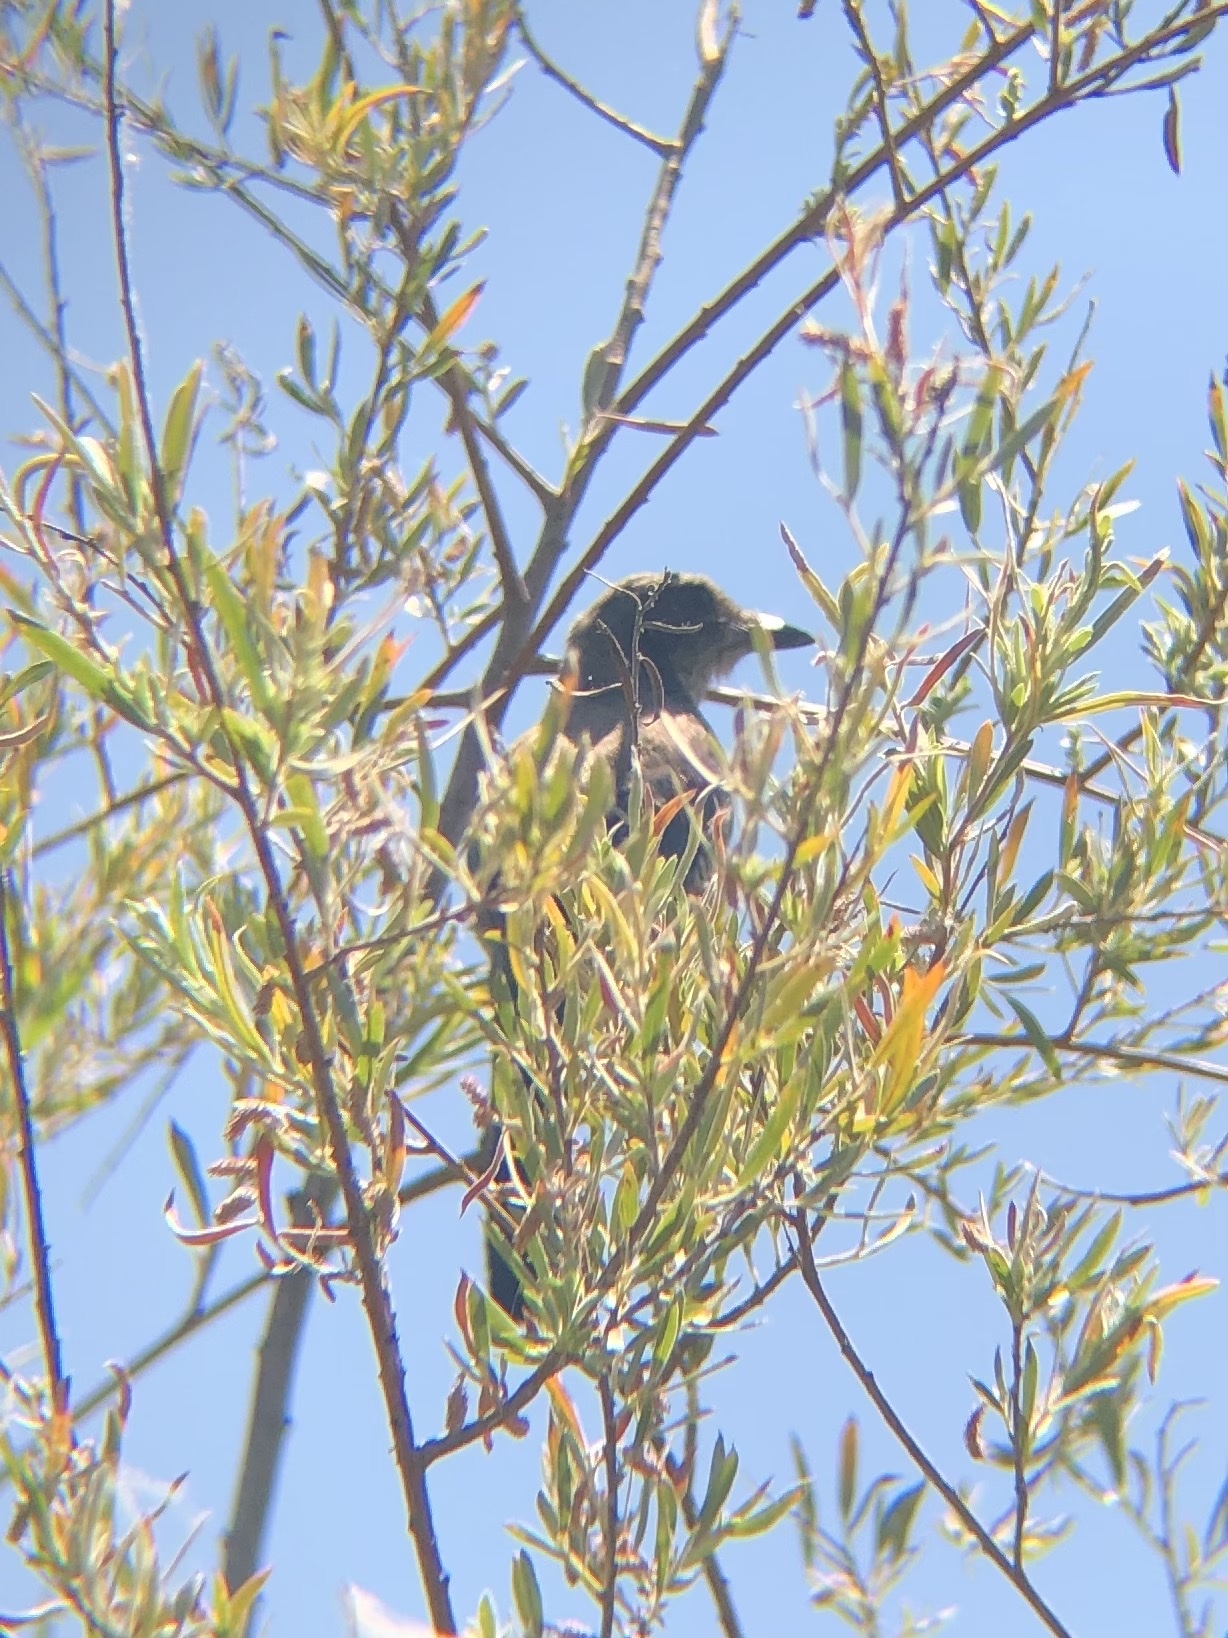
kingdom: Animalia
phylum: Chordata
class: Aves
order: Passeriformes
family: Corvidae
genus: Aphelocoma
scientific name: Aphelocoma californica
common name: California scrub-jay
